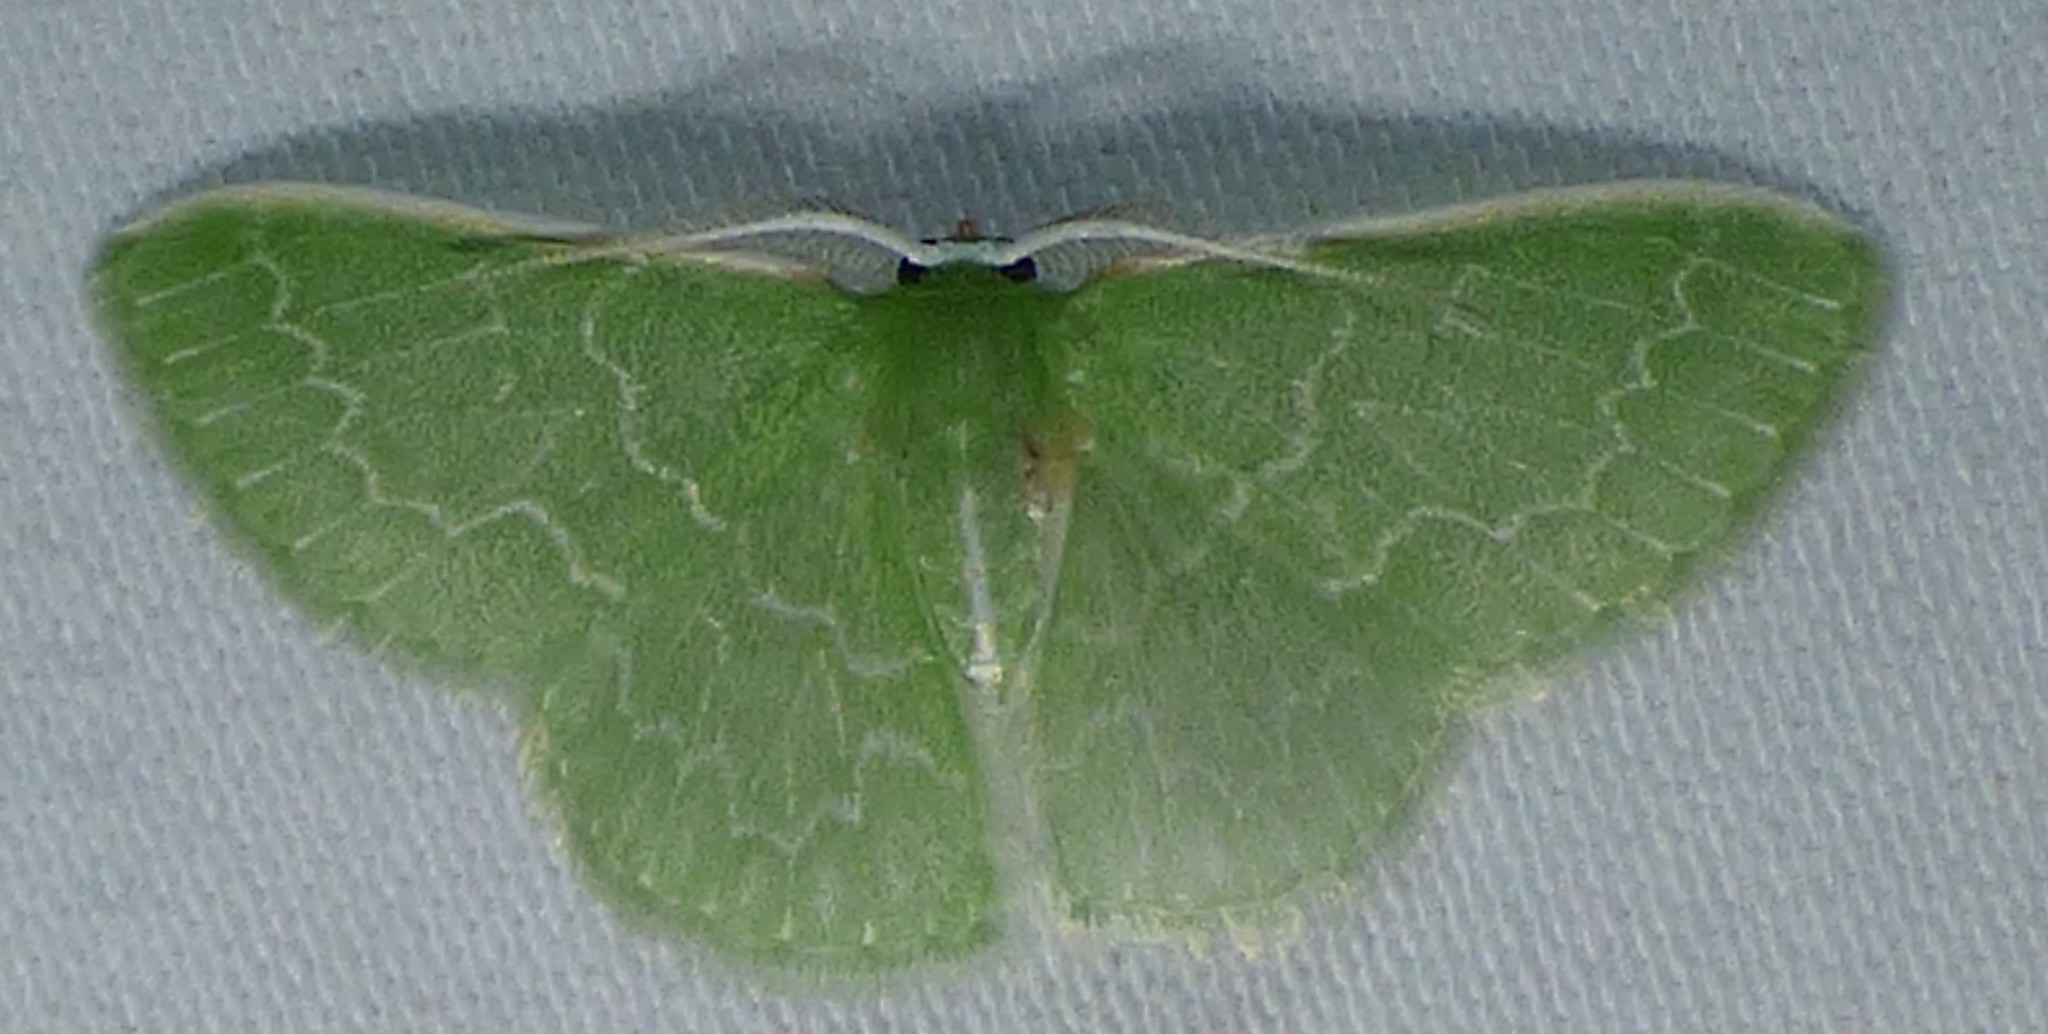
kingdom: Animalia
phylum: Arthropoda
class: Insecta
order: Lepidoptera
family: Geometridae
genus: Synchlora
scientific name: Synchlora frondaria
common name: Southern emerald
